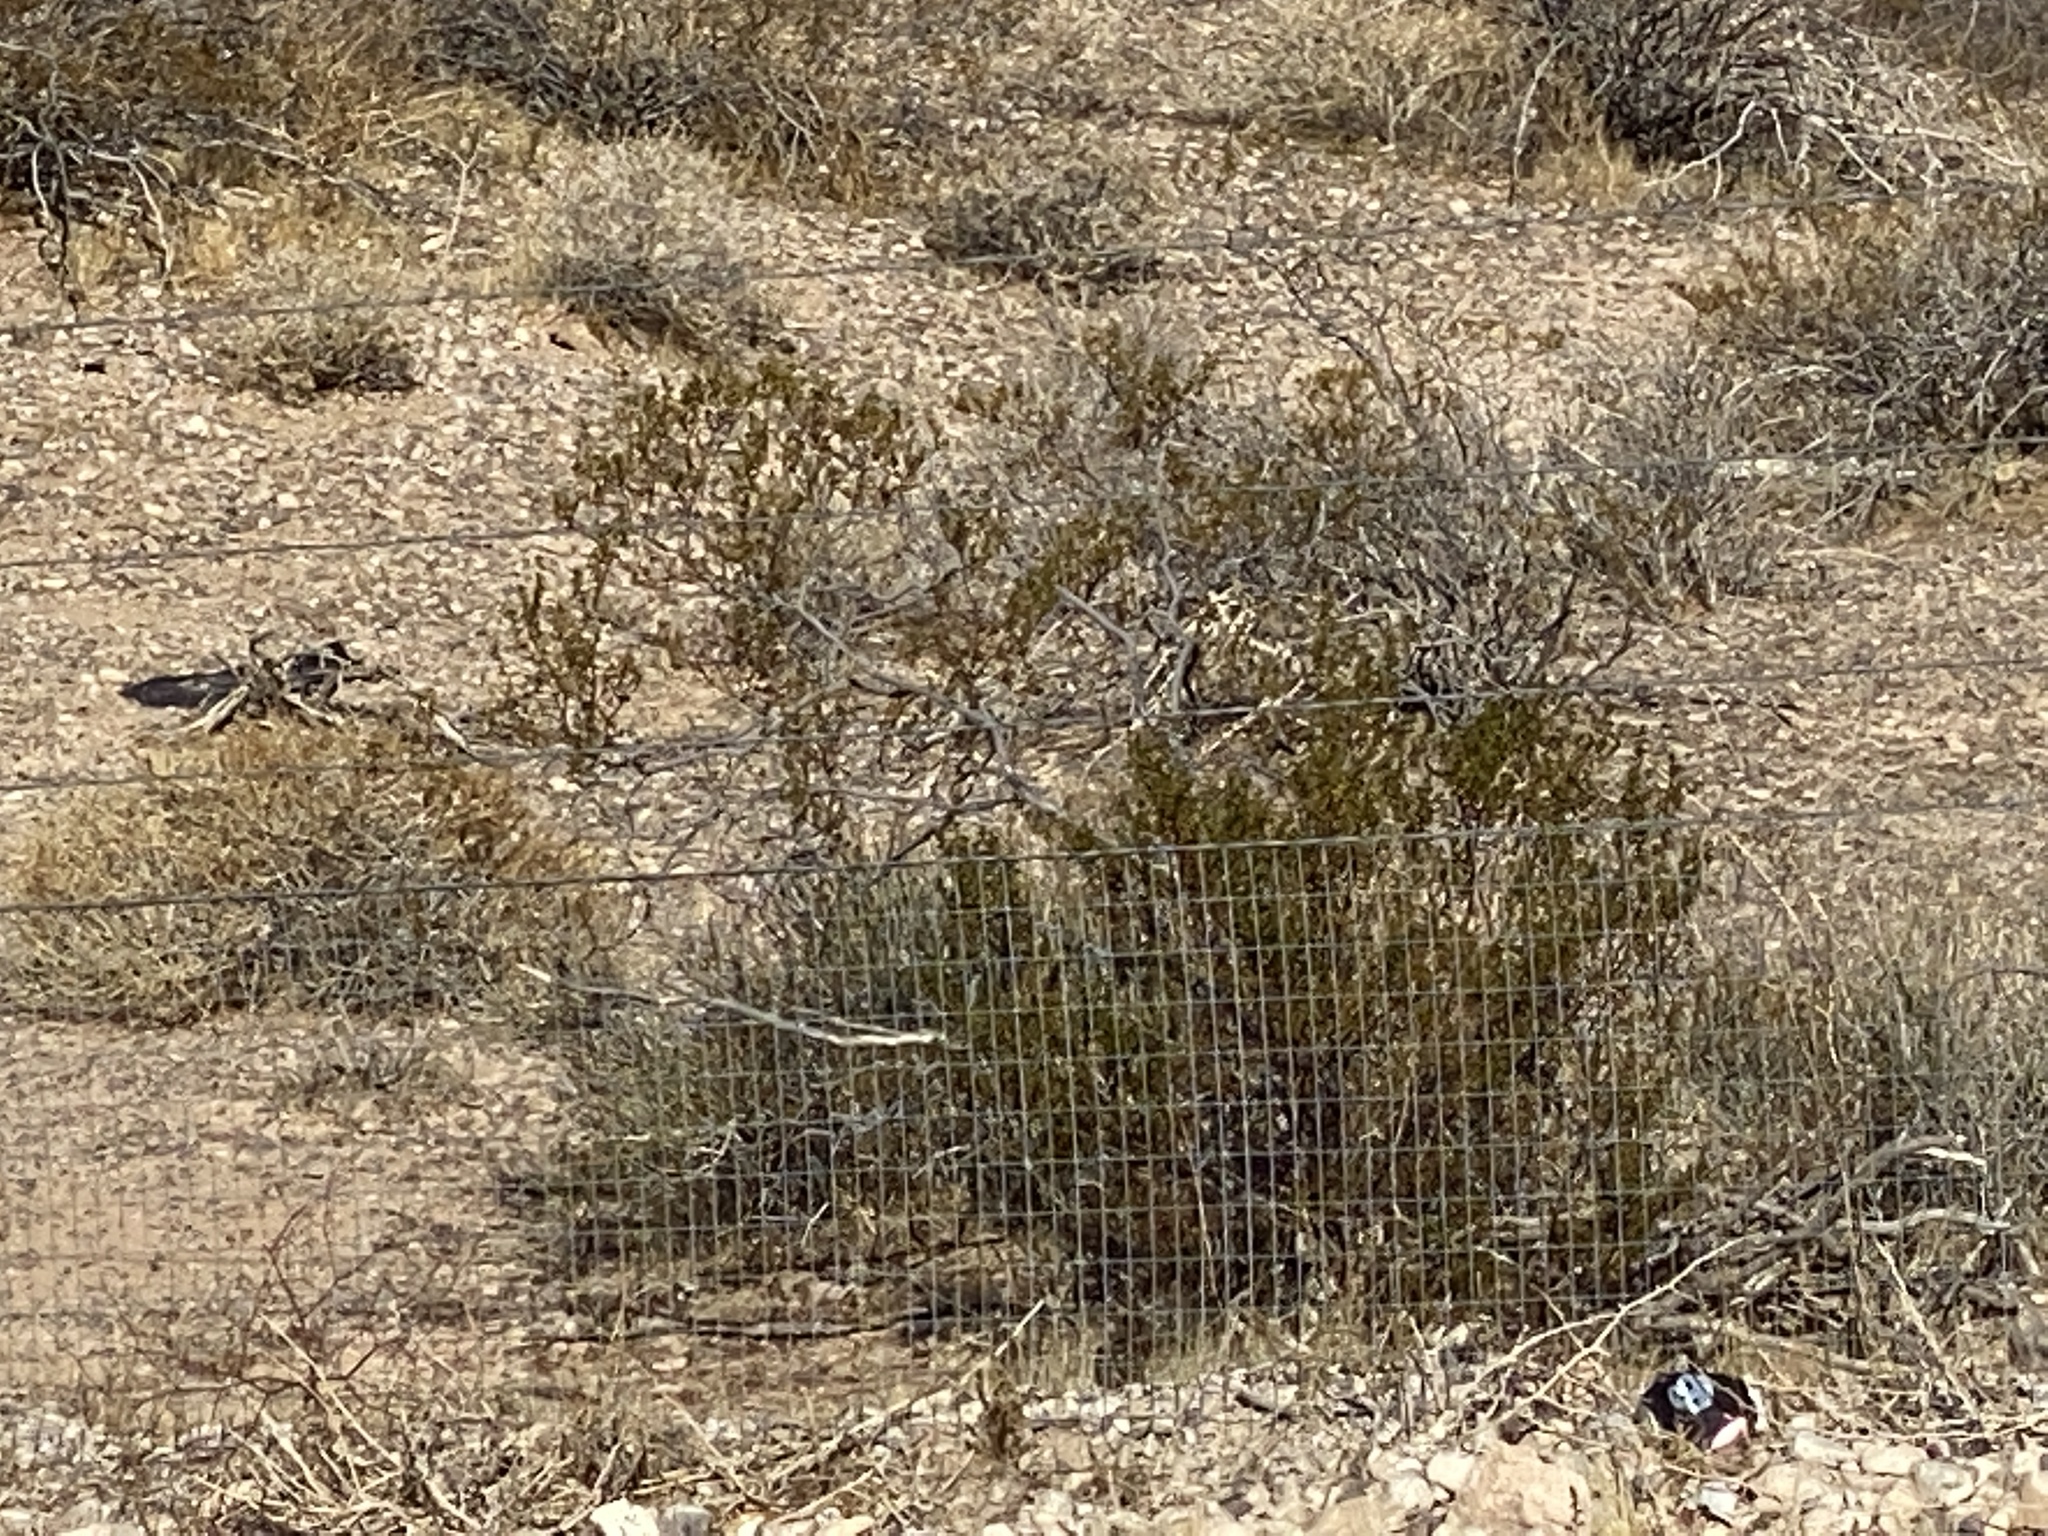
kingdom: Plantae
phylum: Tracheophyta
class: Magnoliopsida
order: Zygophyllales
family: Zygophyllaceae
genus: Larrea
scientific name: Larrea tridentata
